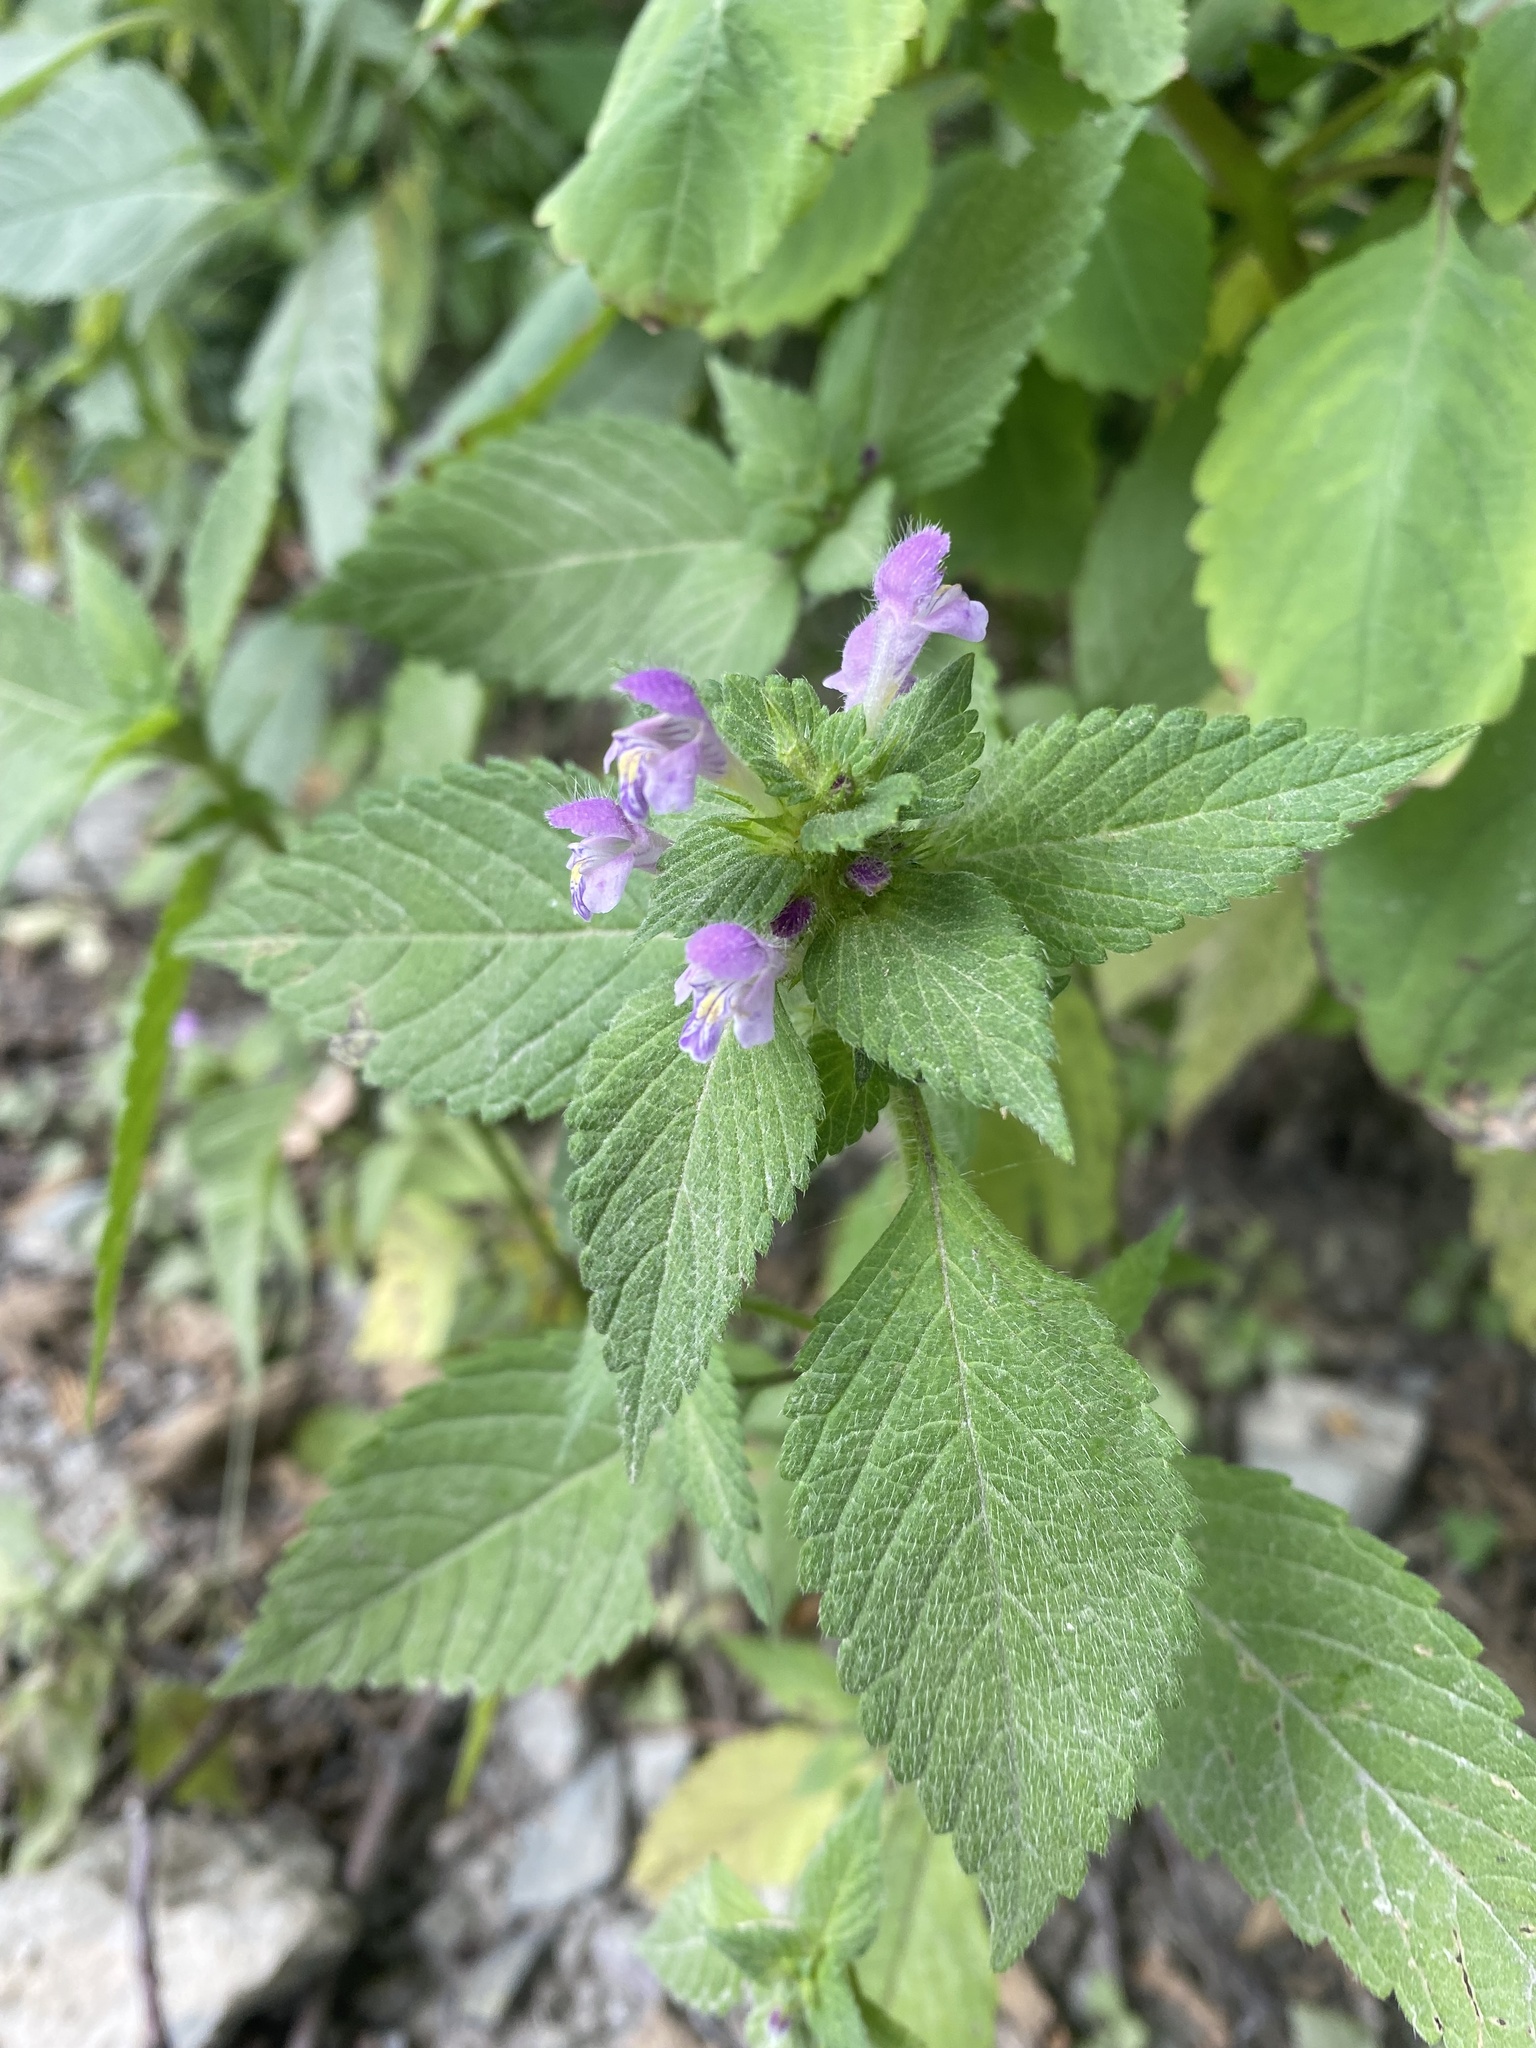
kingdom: Plantae
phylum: Tracheophyta
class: Magnoliopsida
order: Lamiales
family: Lamiaceae
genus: Galeopsis
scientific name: Galeopsis bifida
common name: Bifid hemp-nettle
